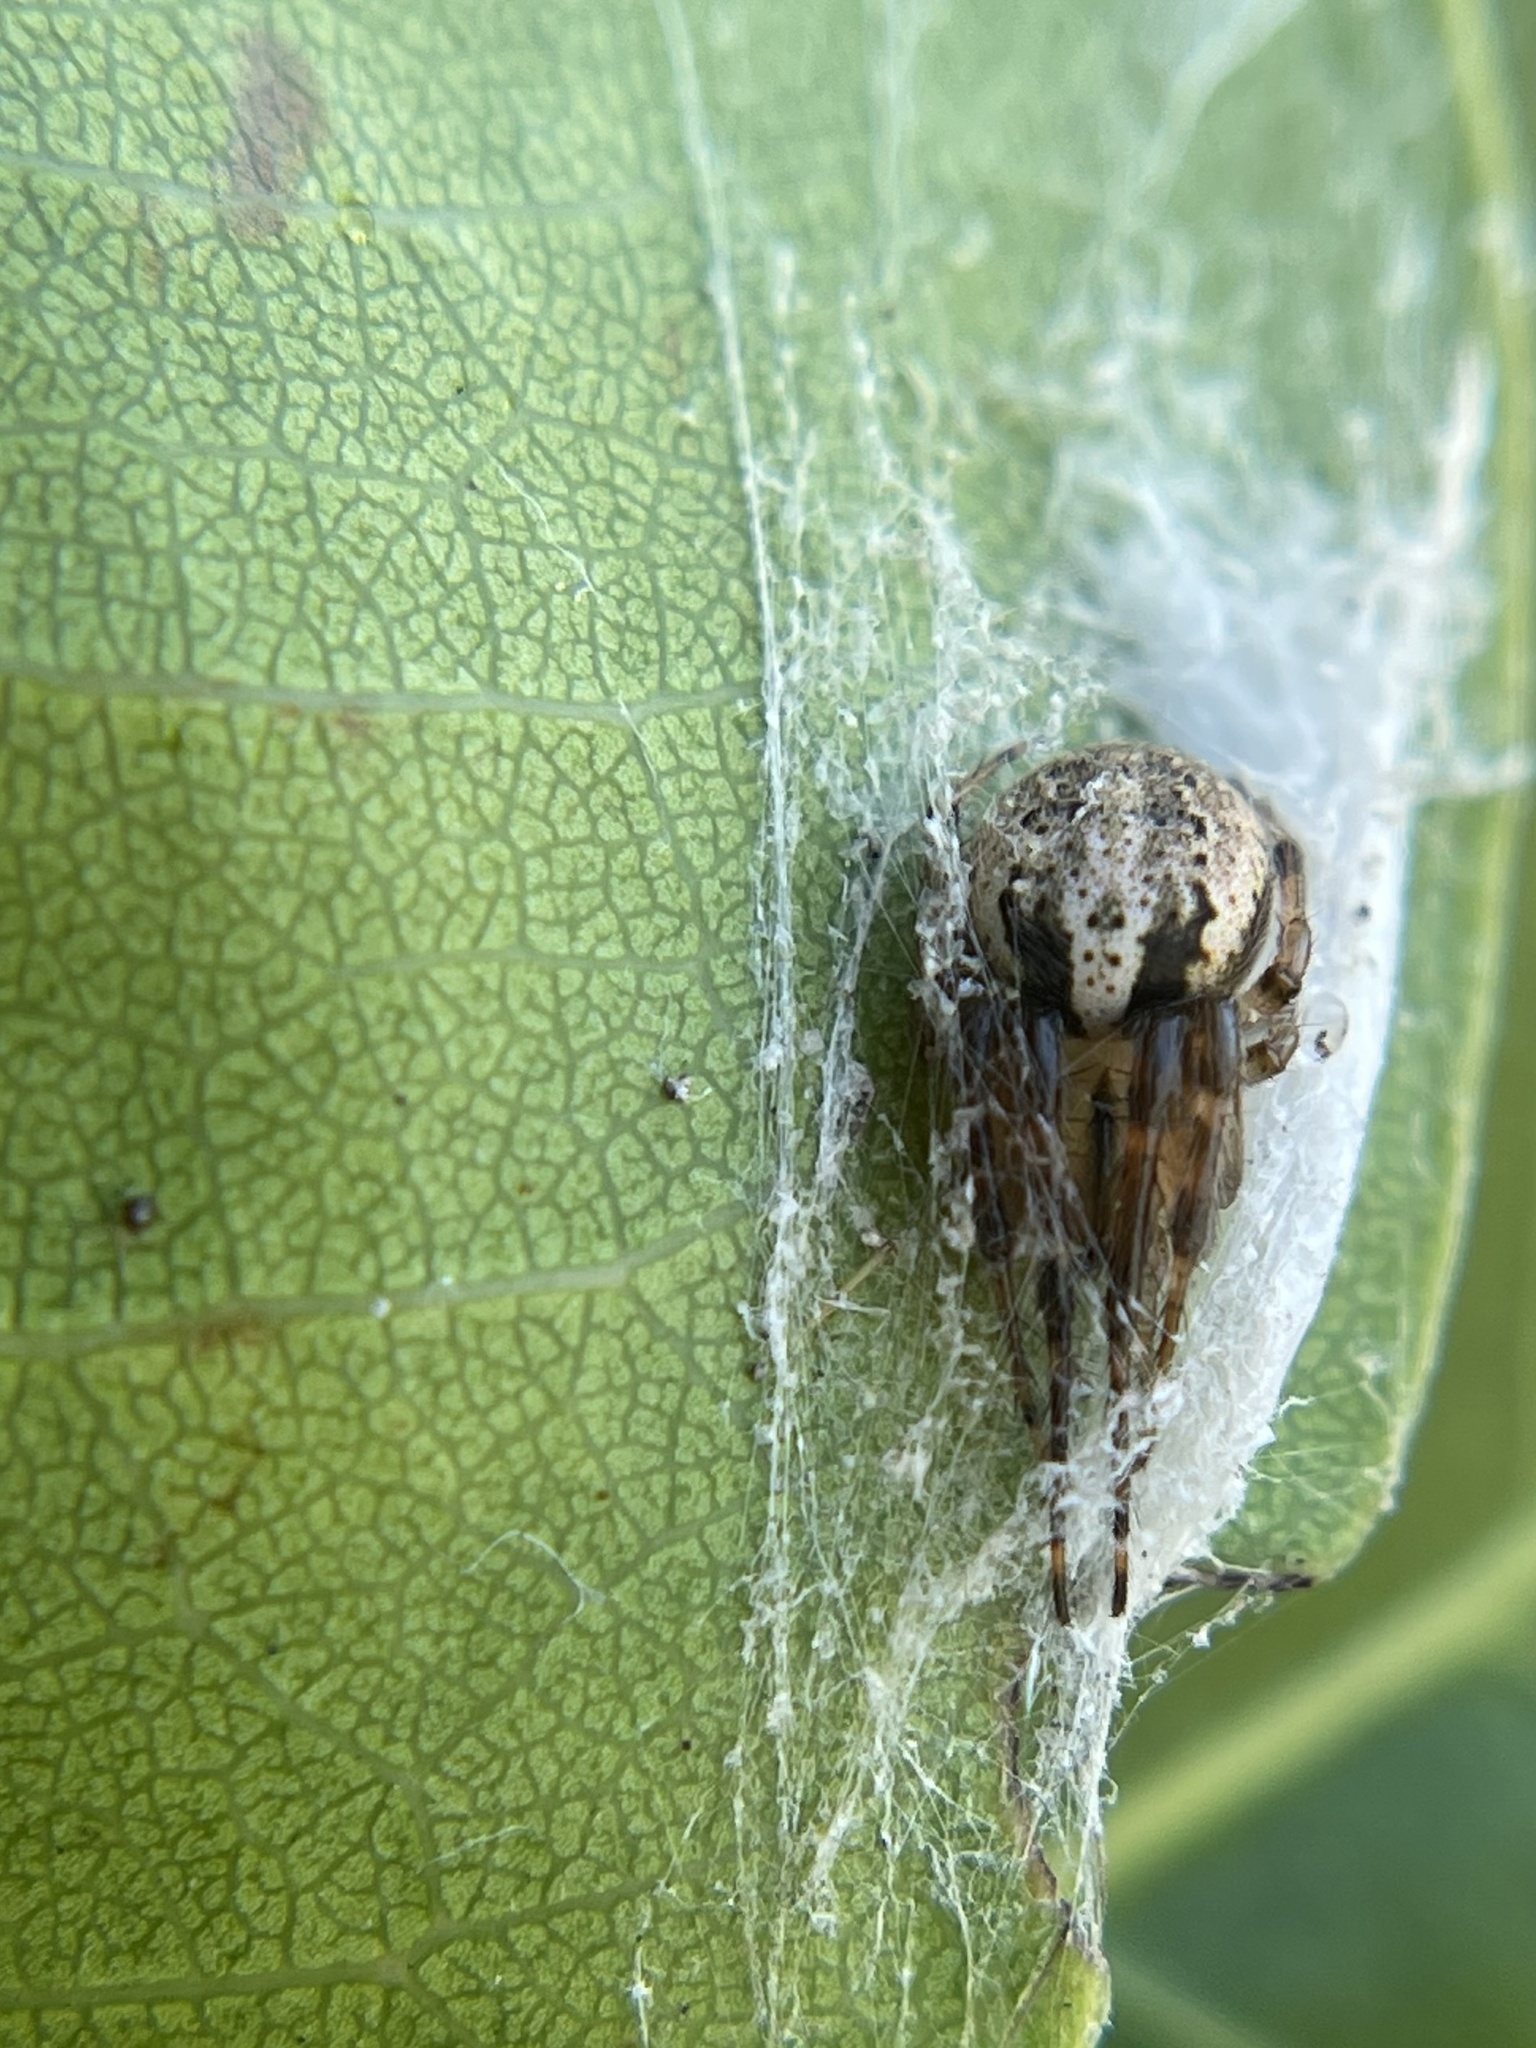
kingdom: Animalia
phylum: Arthropoda
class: Arachnida
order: Araneae
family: Araneidae
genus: Metazygia
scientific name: Metazygia zilloides
